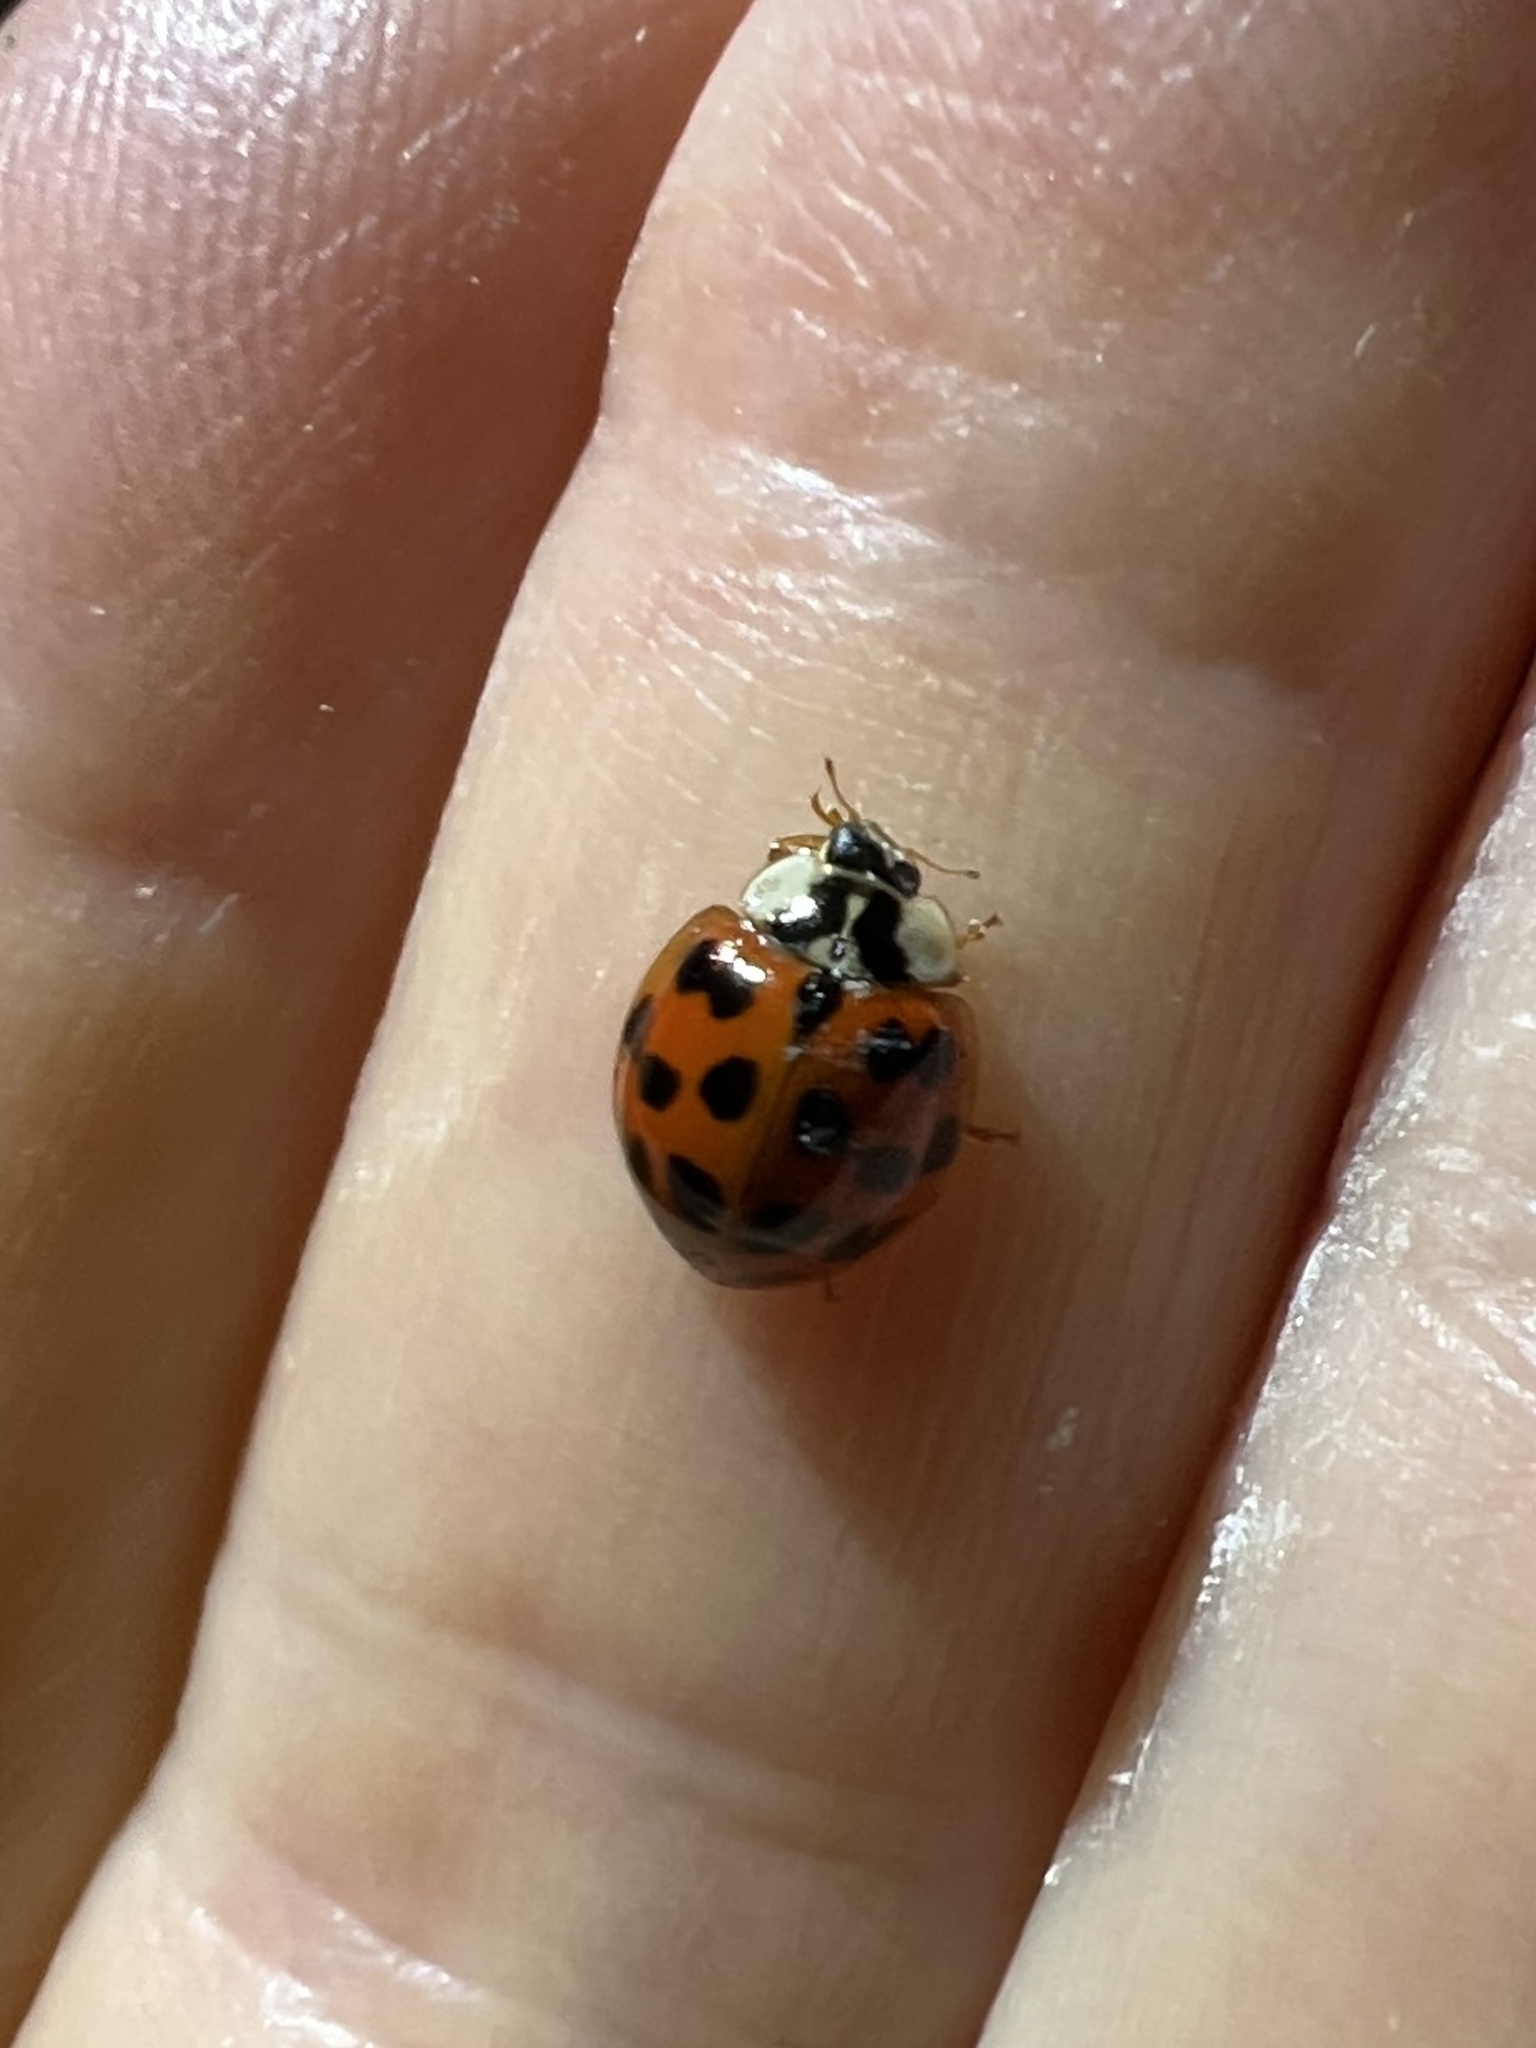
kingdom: Animalia
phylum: Arthropoda
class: Insecta
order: Coleoptera
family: Coccinellidae
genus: Harmonia
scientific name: Harmonia axyridis
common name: Harlequin ladybird
